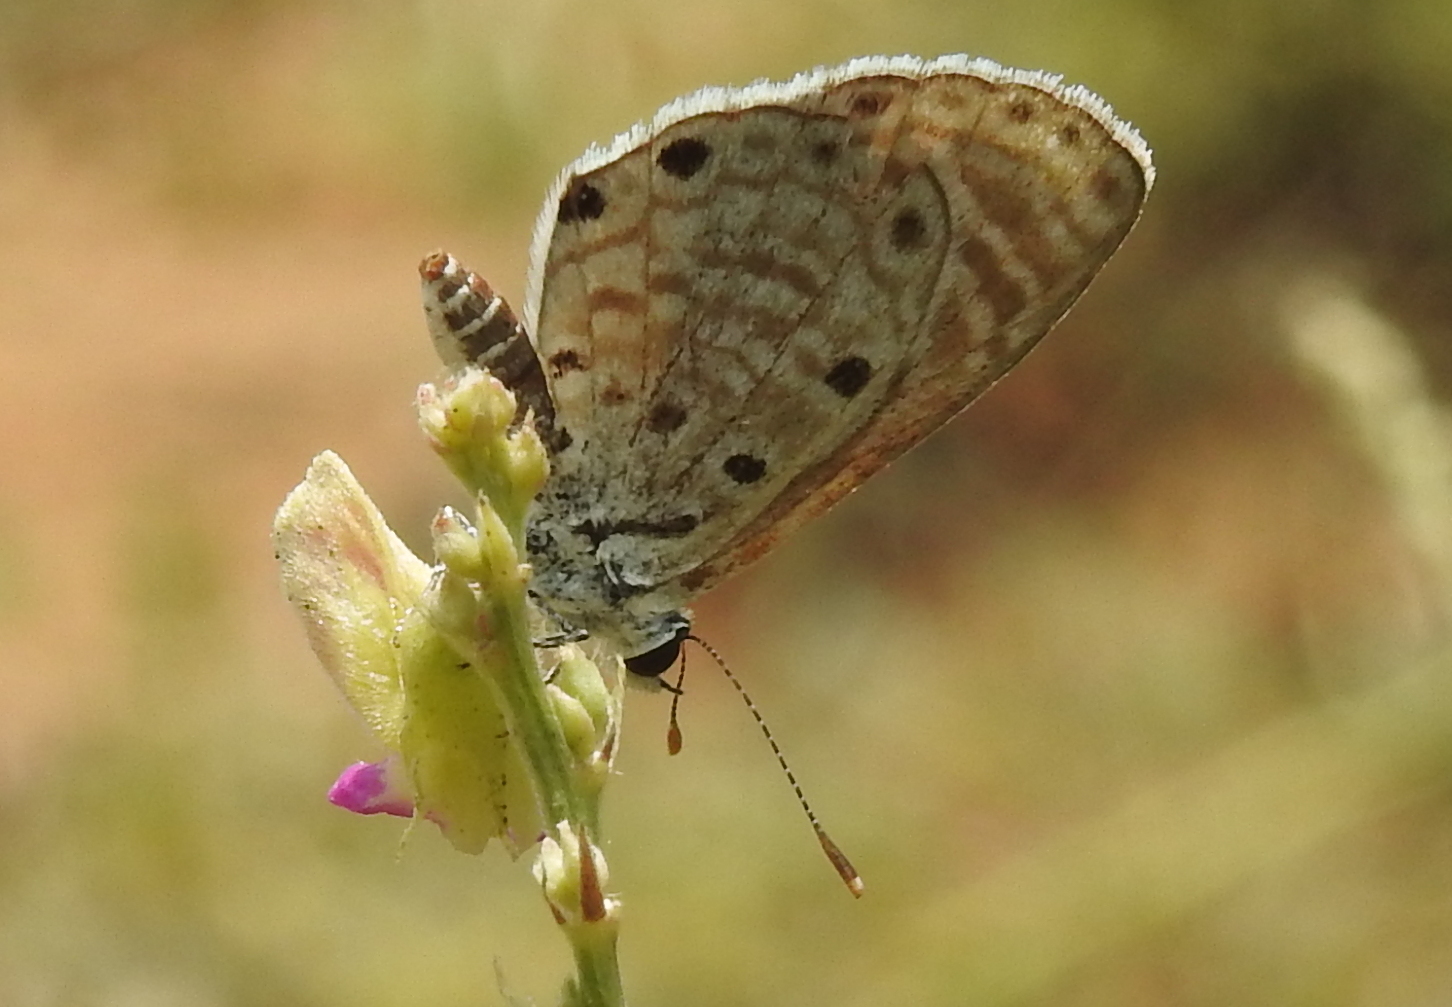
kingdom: Animalia
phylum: Arthropoda
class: Insecta
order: Lepidoptera
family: Lycaenidae
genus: Azanus
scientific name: Azanus jesous
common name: African babul blue
